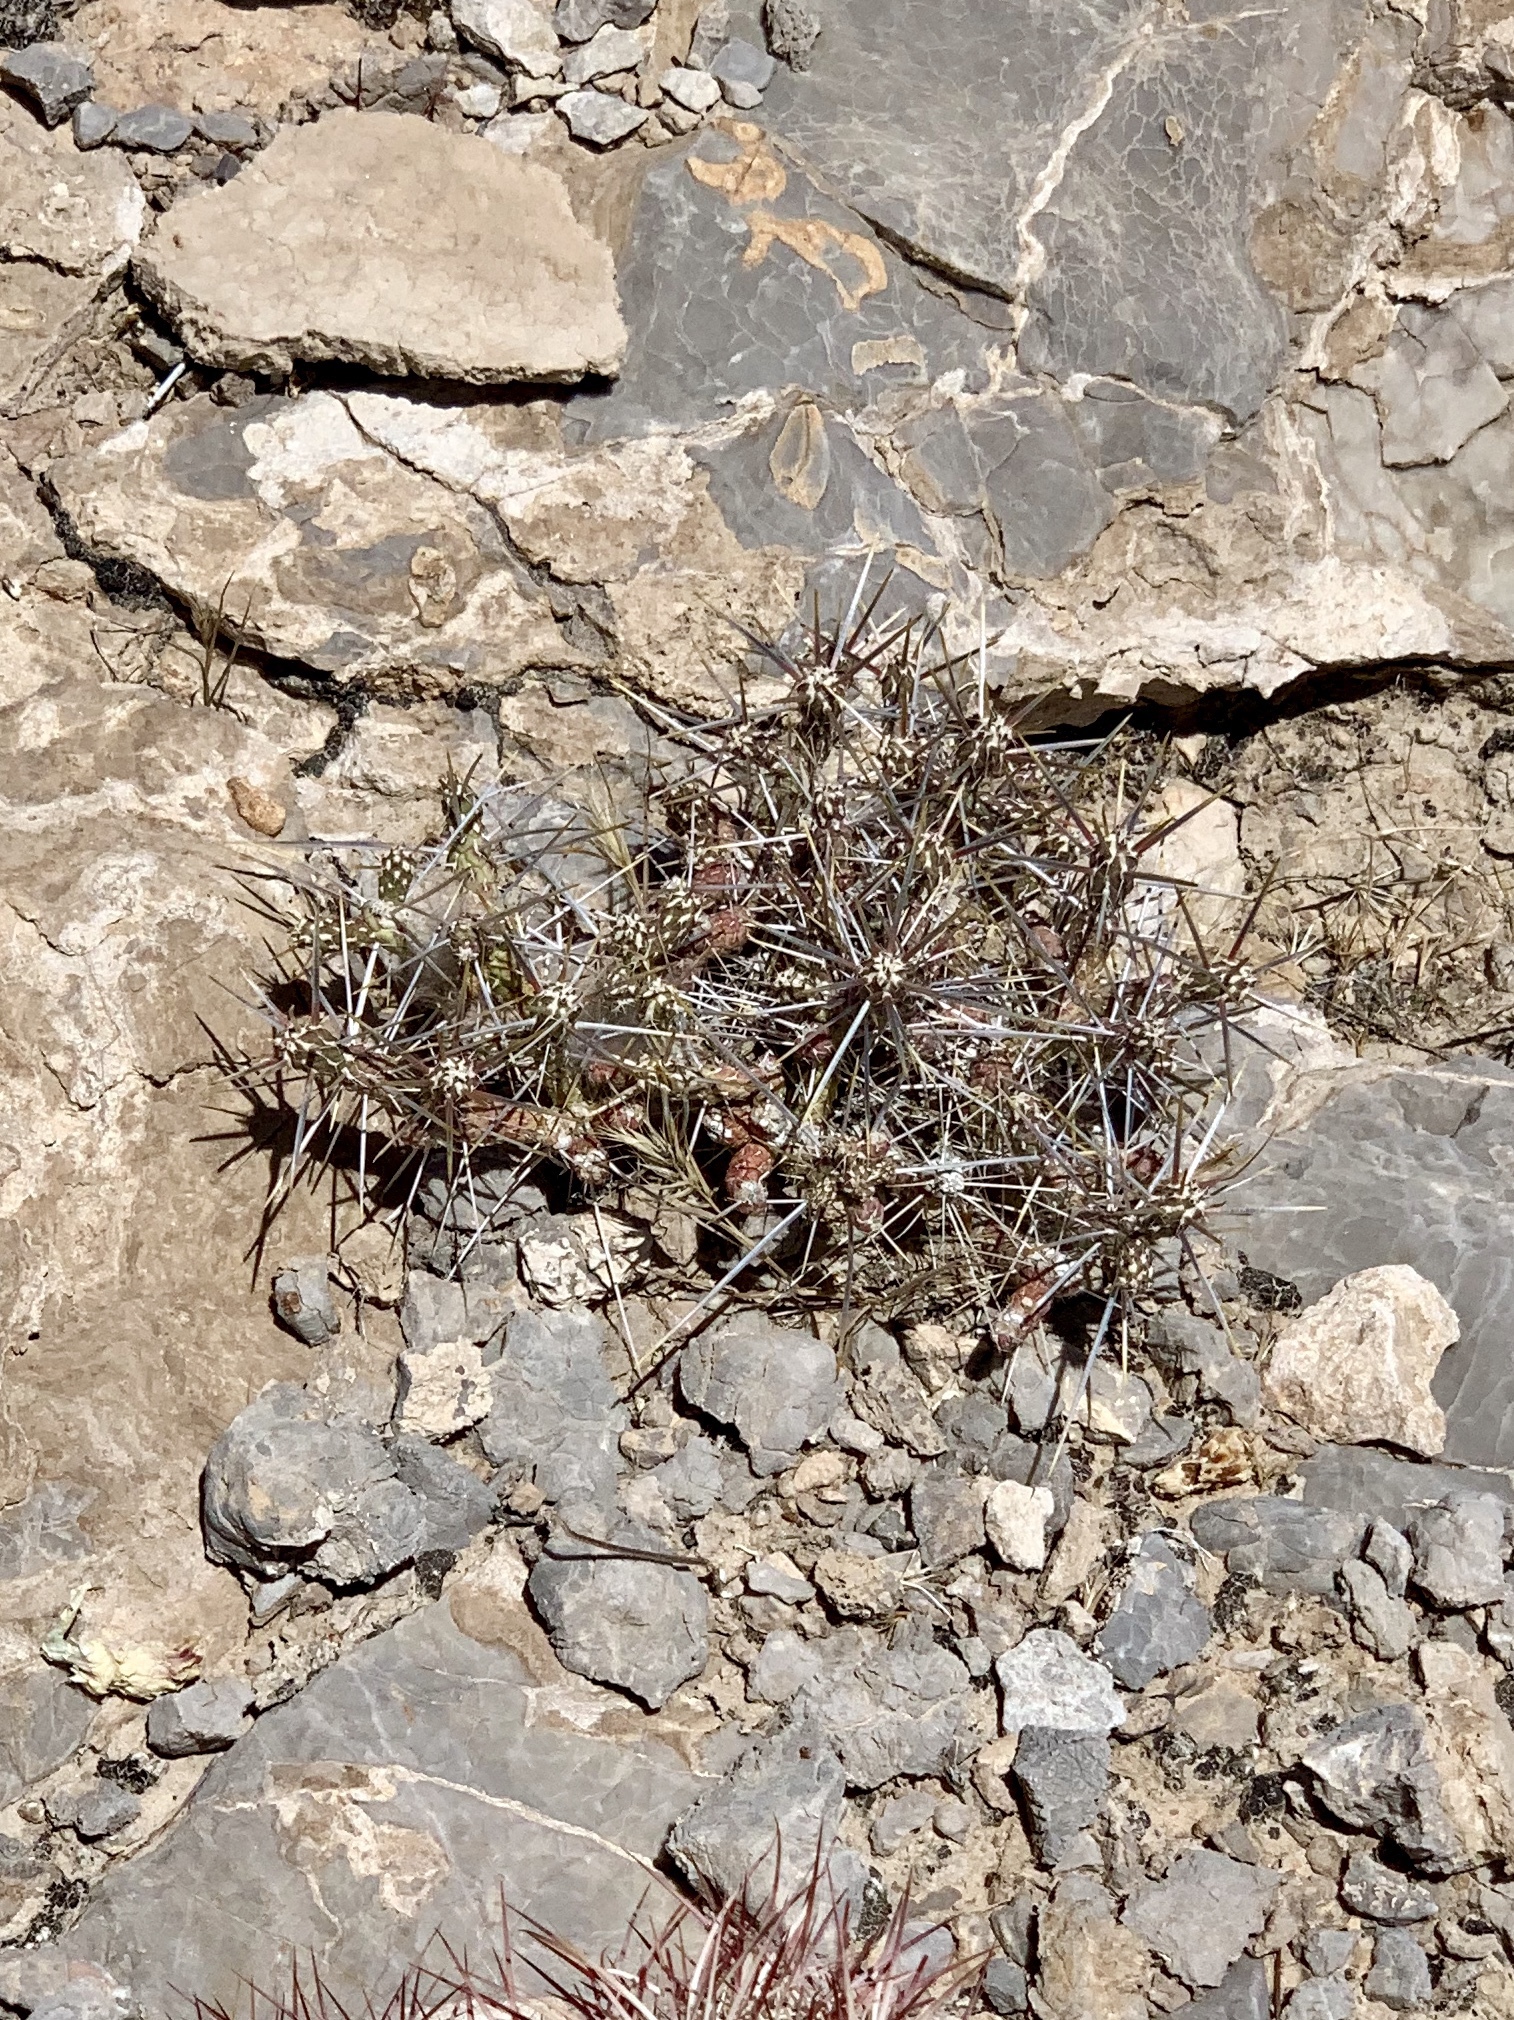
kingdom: Plantae
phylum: Tracheophyta
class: Magnoliopsida
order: Caryophyllales
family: Cactaceae
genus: Cylindropuntia
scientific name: Cylindropuntia ramosissima
